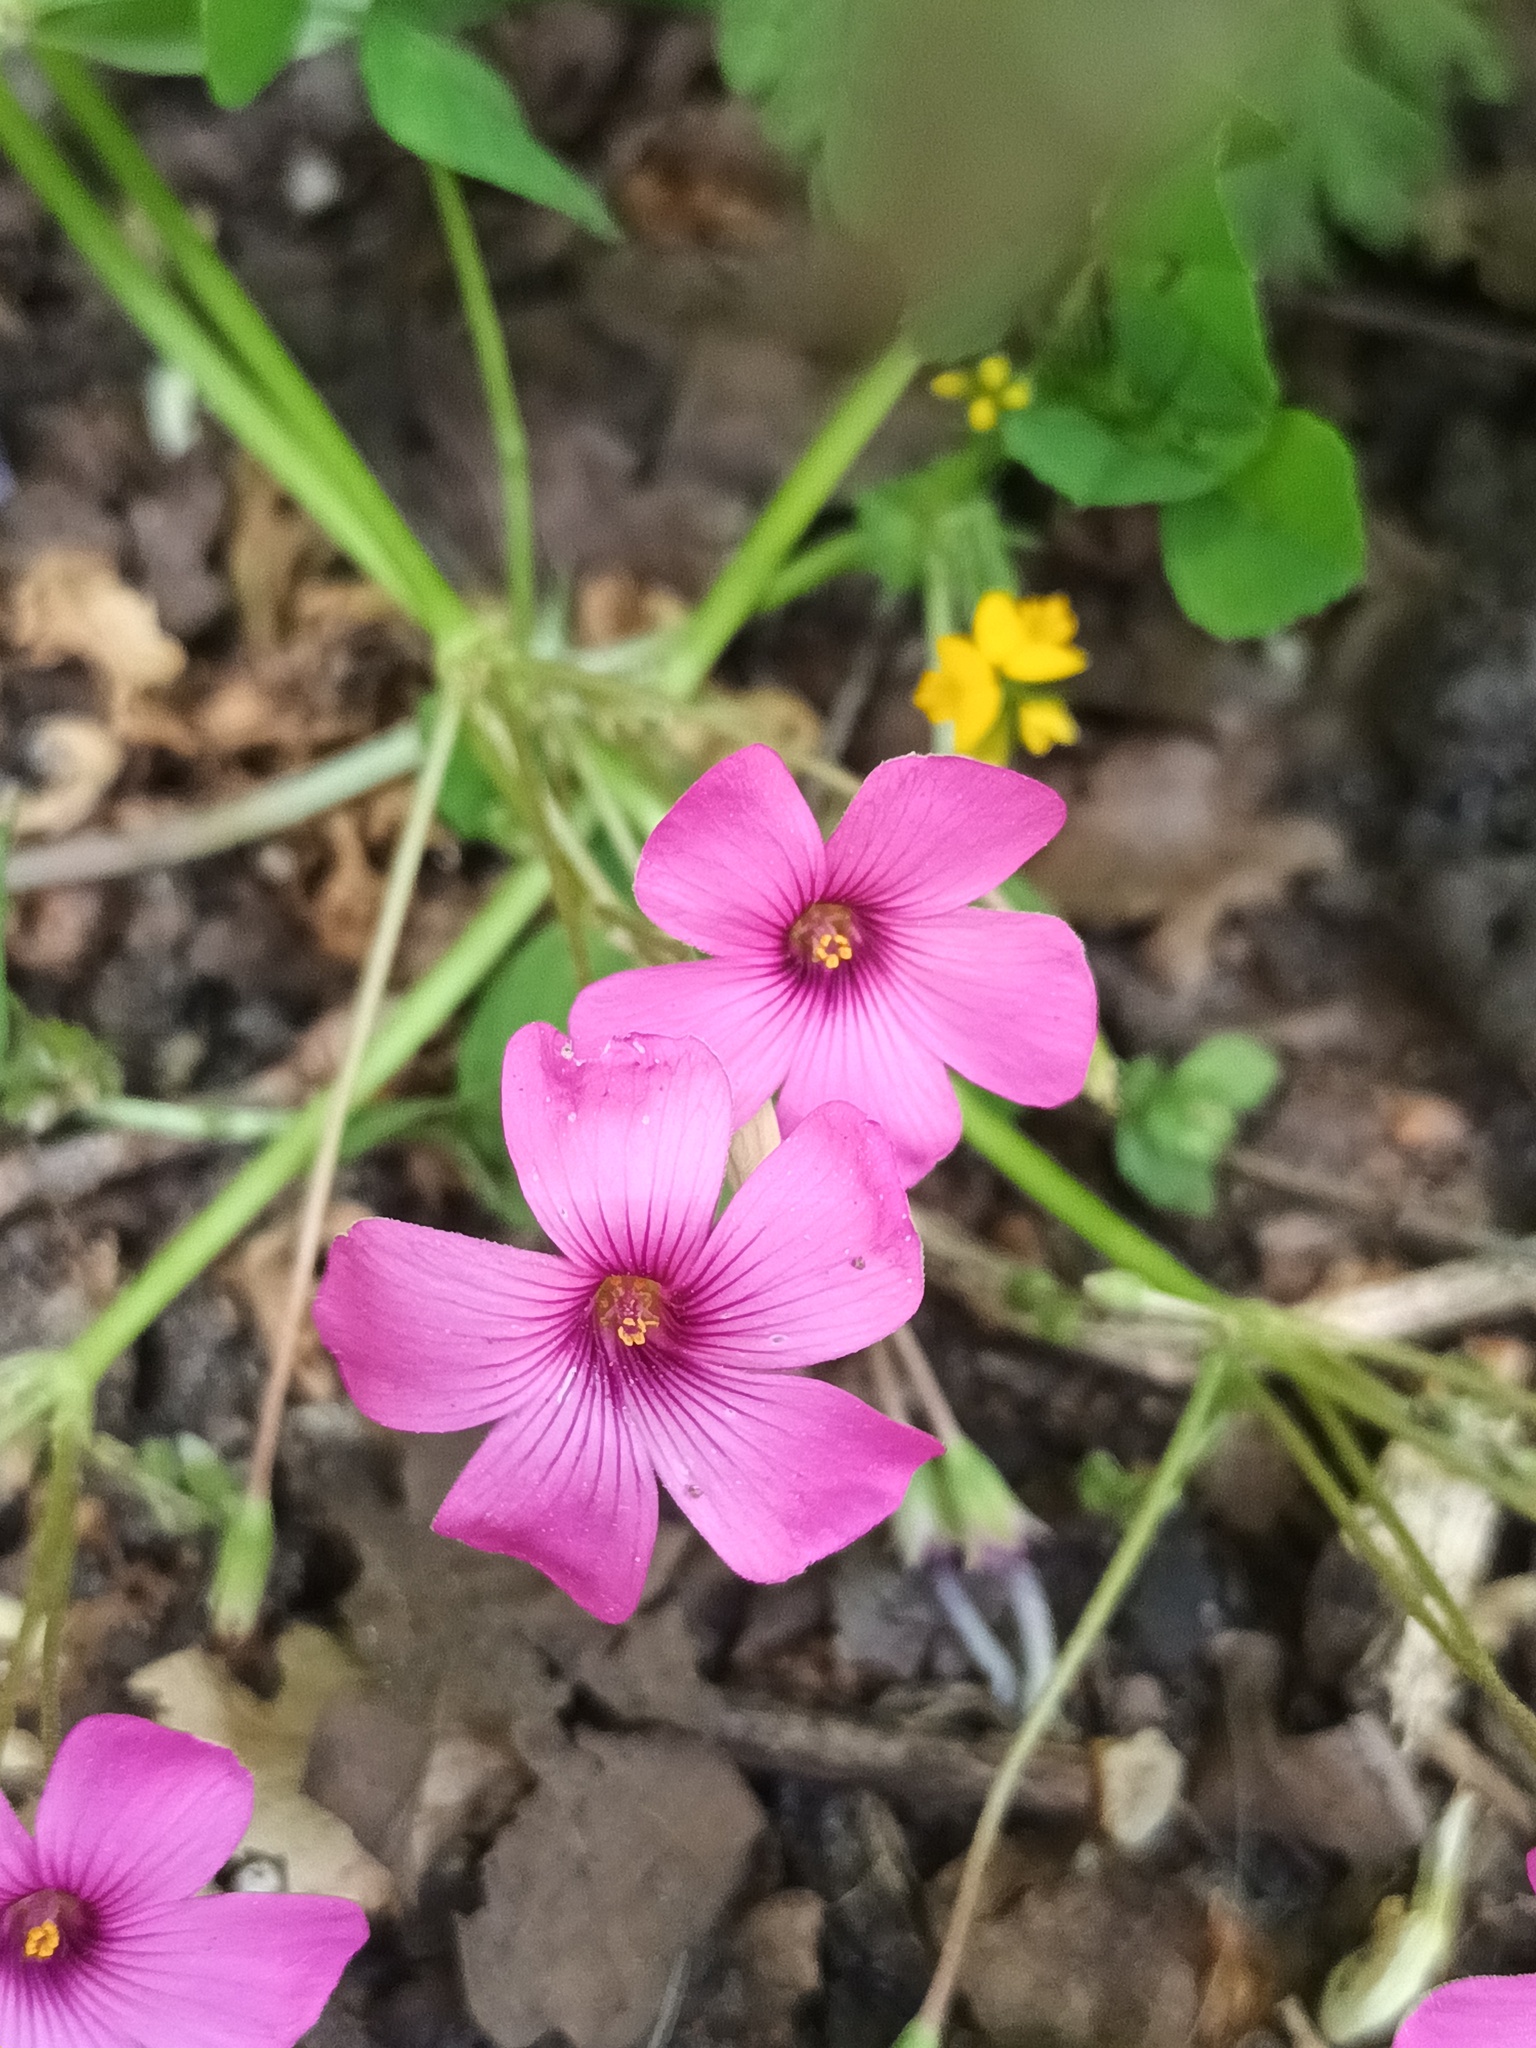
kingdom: Plantae
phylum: Tracheophyta
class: Magnoliopsida
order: Oxalidales
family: Oxalidaceae
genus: Oxalis
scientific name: Oxalis articulata
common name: Pink-sorrel
